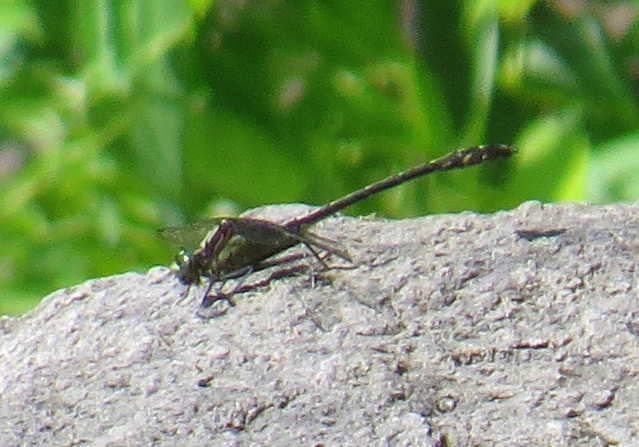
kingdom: Animalia
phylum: Arthropoda
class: Insecta
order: Odonata
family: Gomphidae
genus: Dromogomphus
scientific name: Dromogomphus spinosus
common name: Black-shouldered spinyleg
